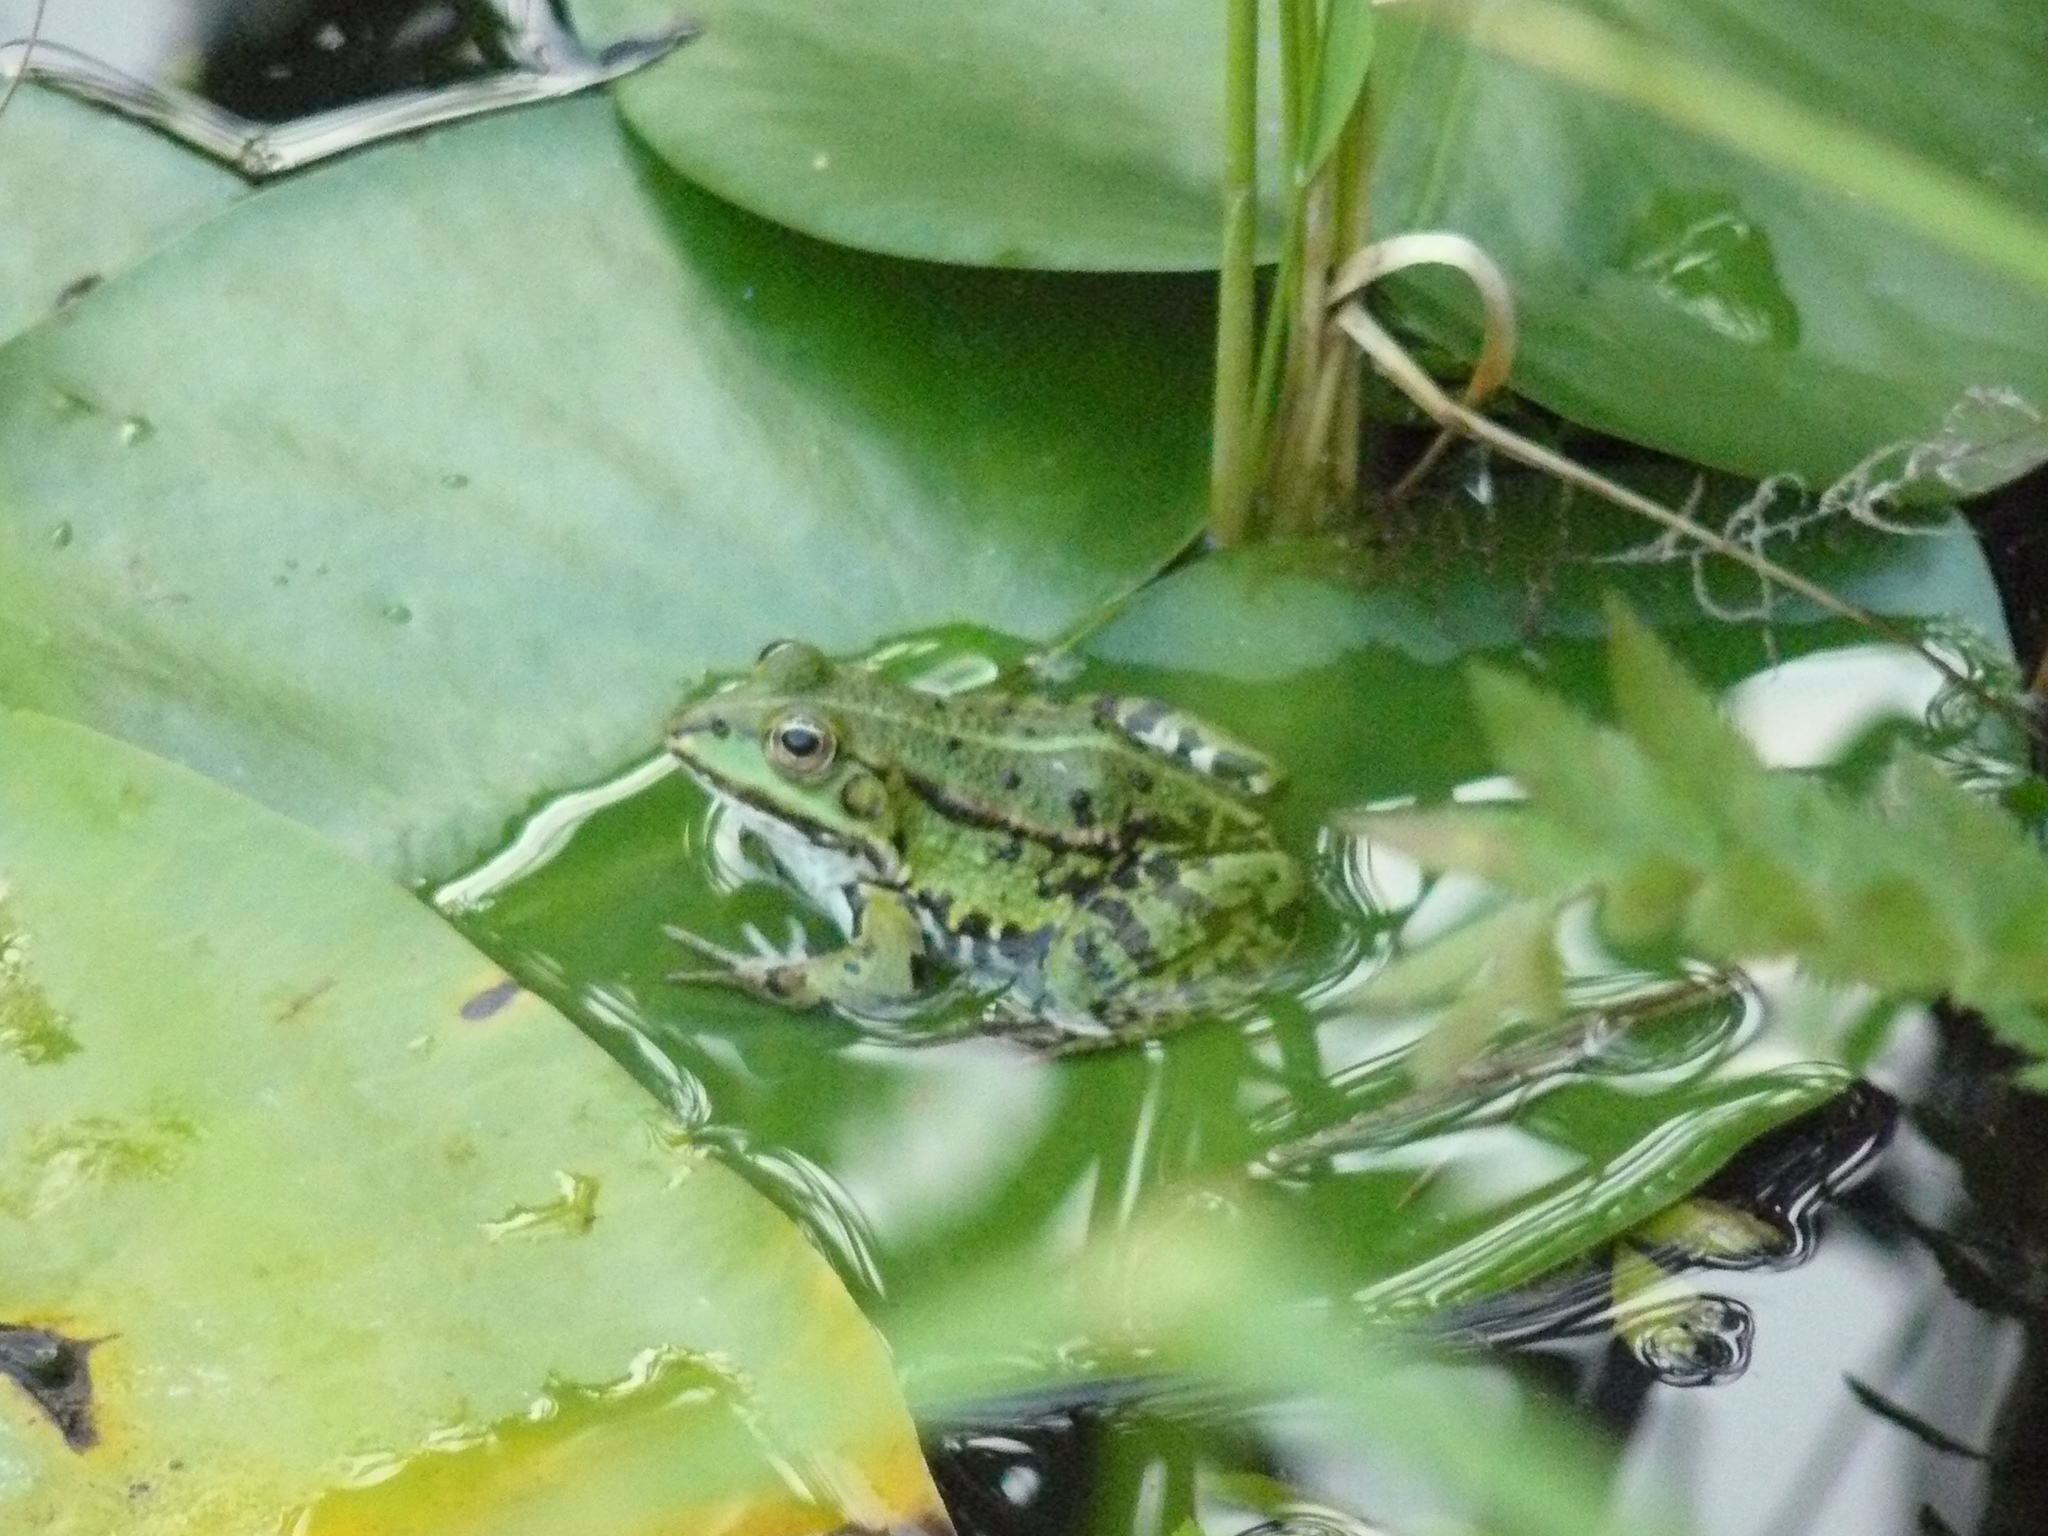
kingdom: Animalia
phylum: Chordata
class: Amphibia
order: Anura
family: Ranidae
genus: Pelophylax
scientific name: Pelophylax
